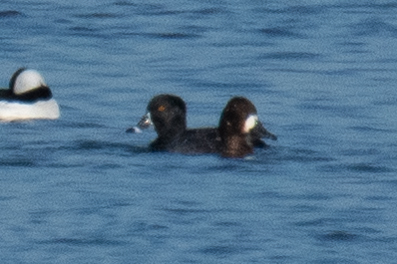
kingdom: Animalia
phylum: Chordata
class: Aves
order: Anseriformes
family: Anatidae
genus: Aythya
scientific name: Aythya affinis
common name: Lesser scaup
